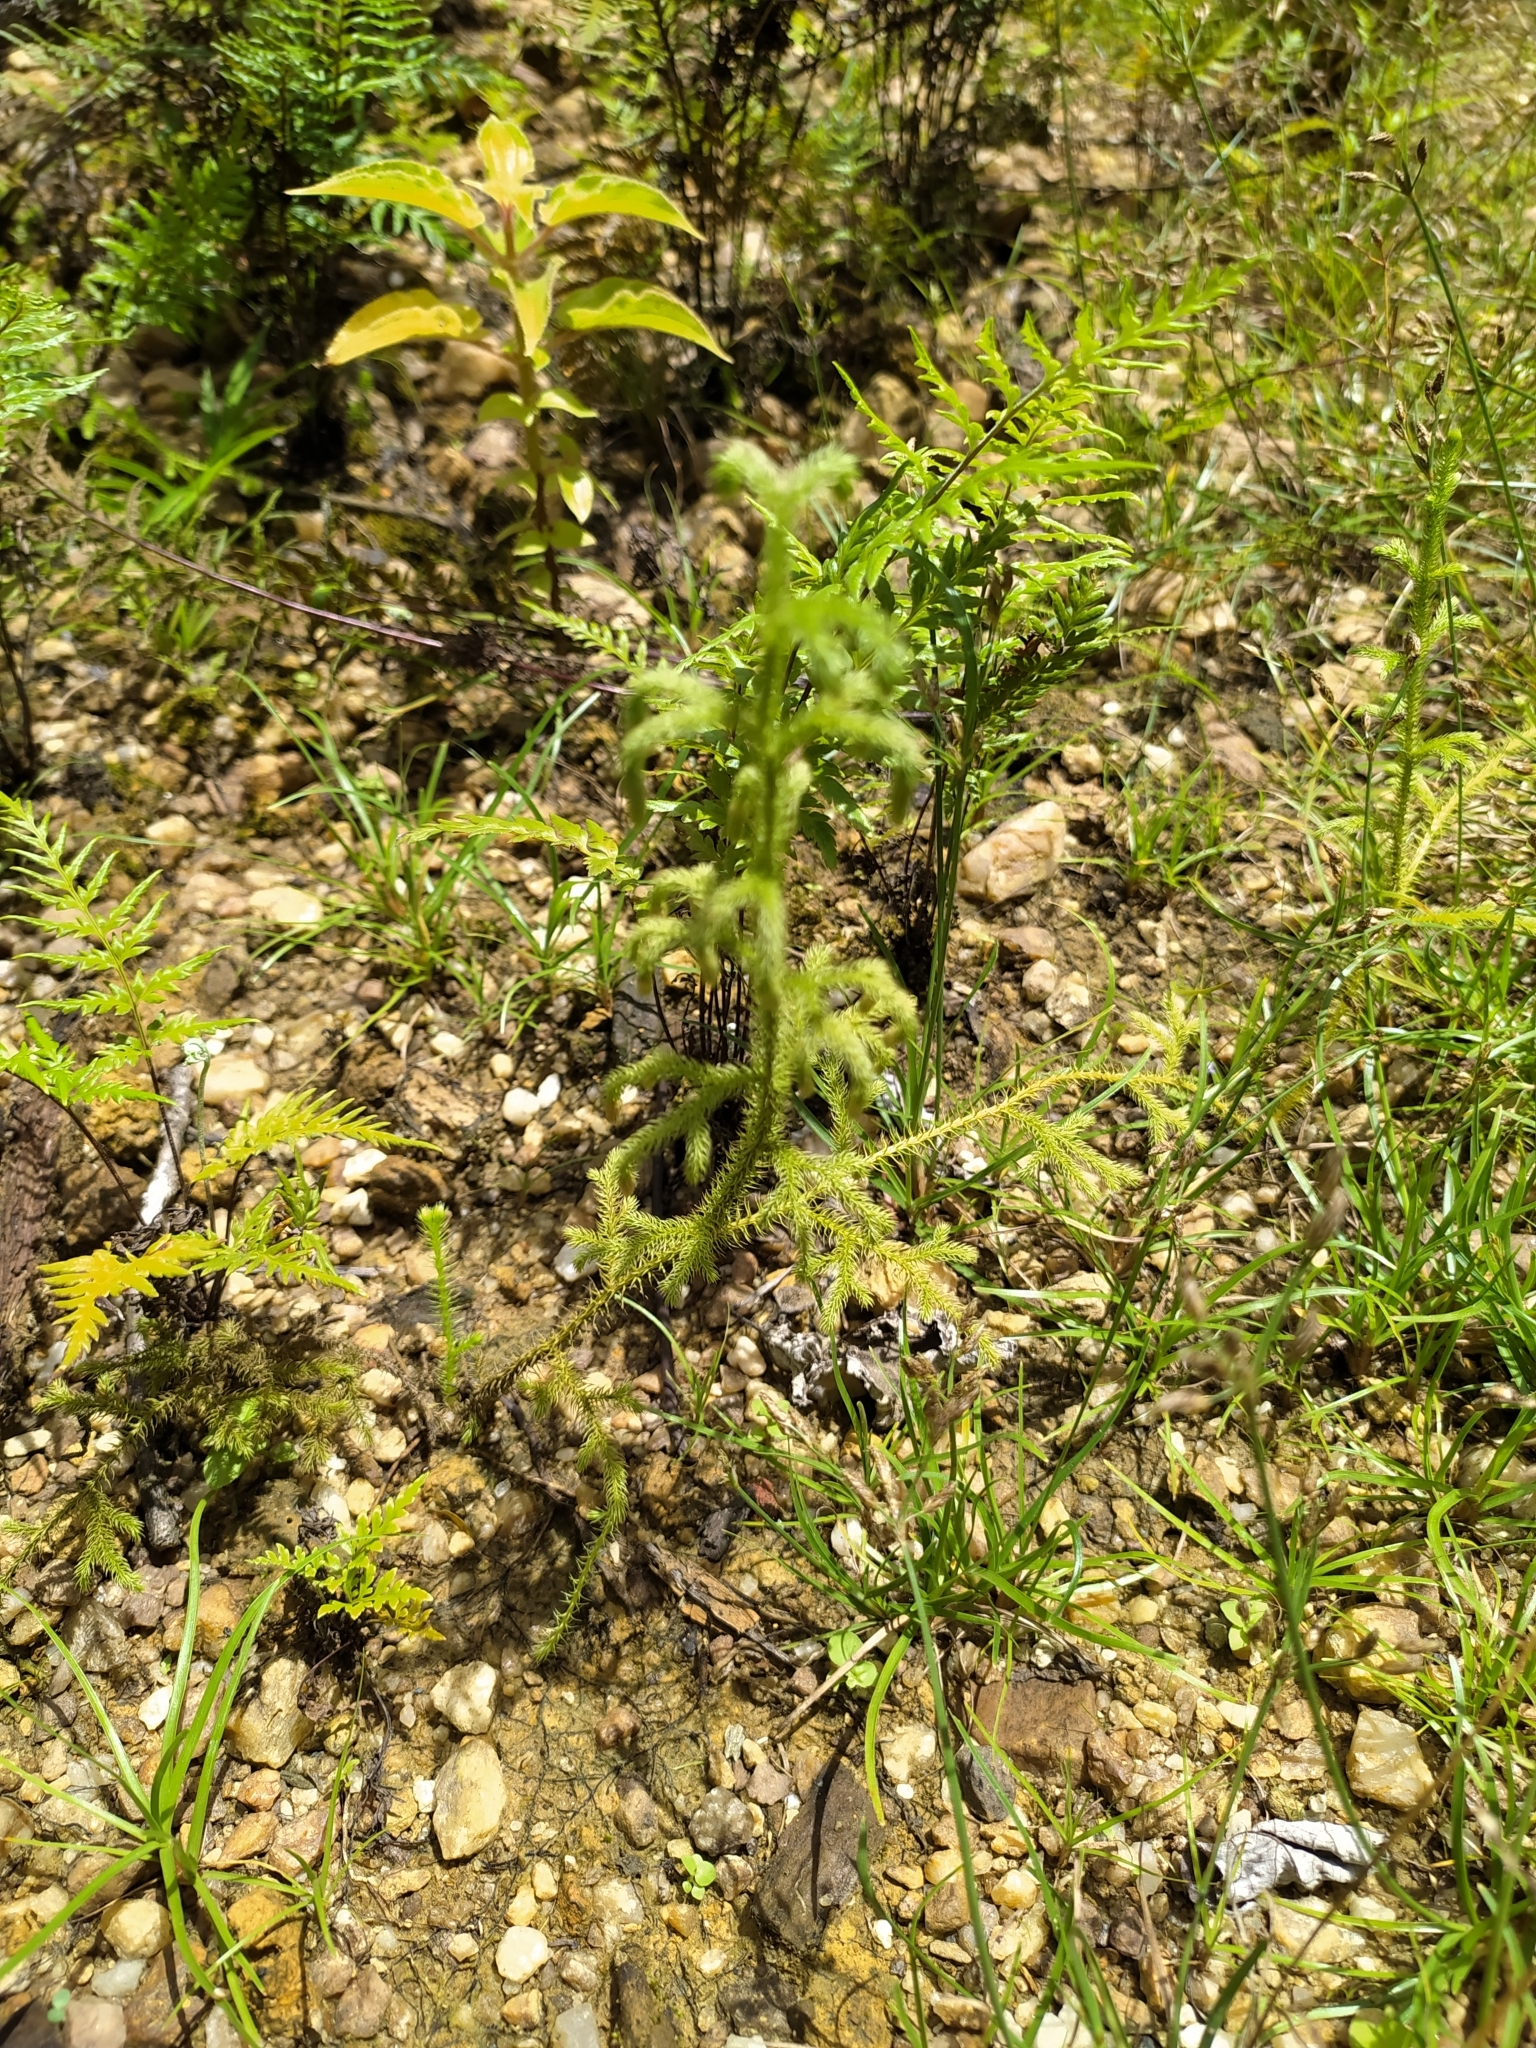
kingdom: Plantae
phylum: Tracheophyta
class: Lycopodiopsida
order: Lycopodiales
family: Lycopodiaceae
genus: Palhinhaea
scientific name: Palhinhaea cernua
